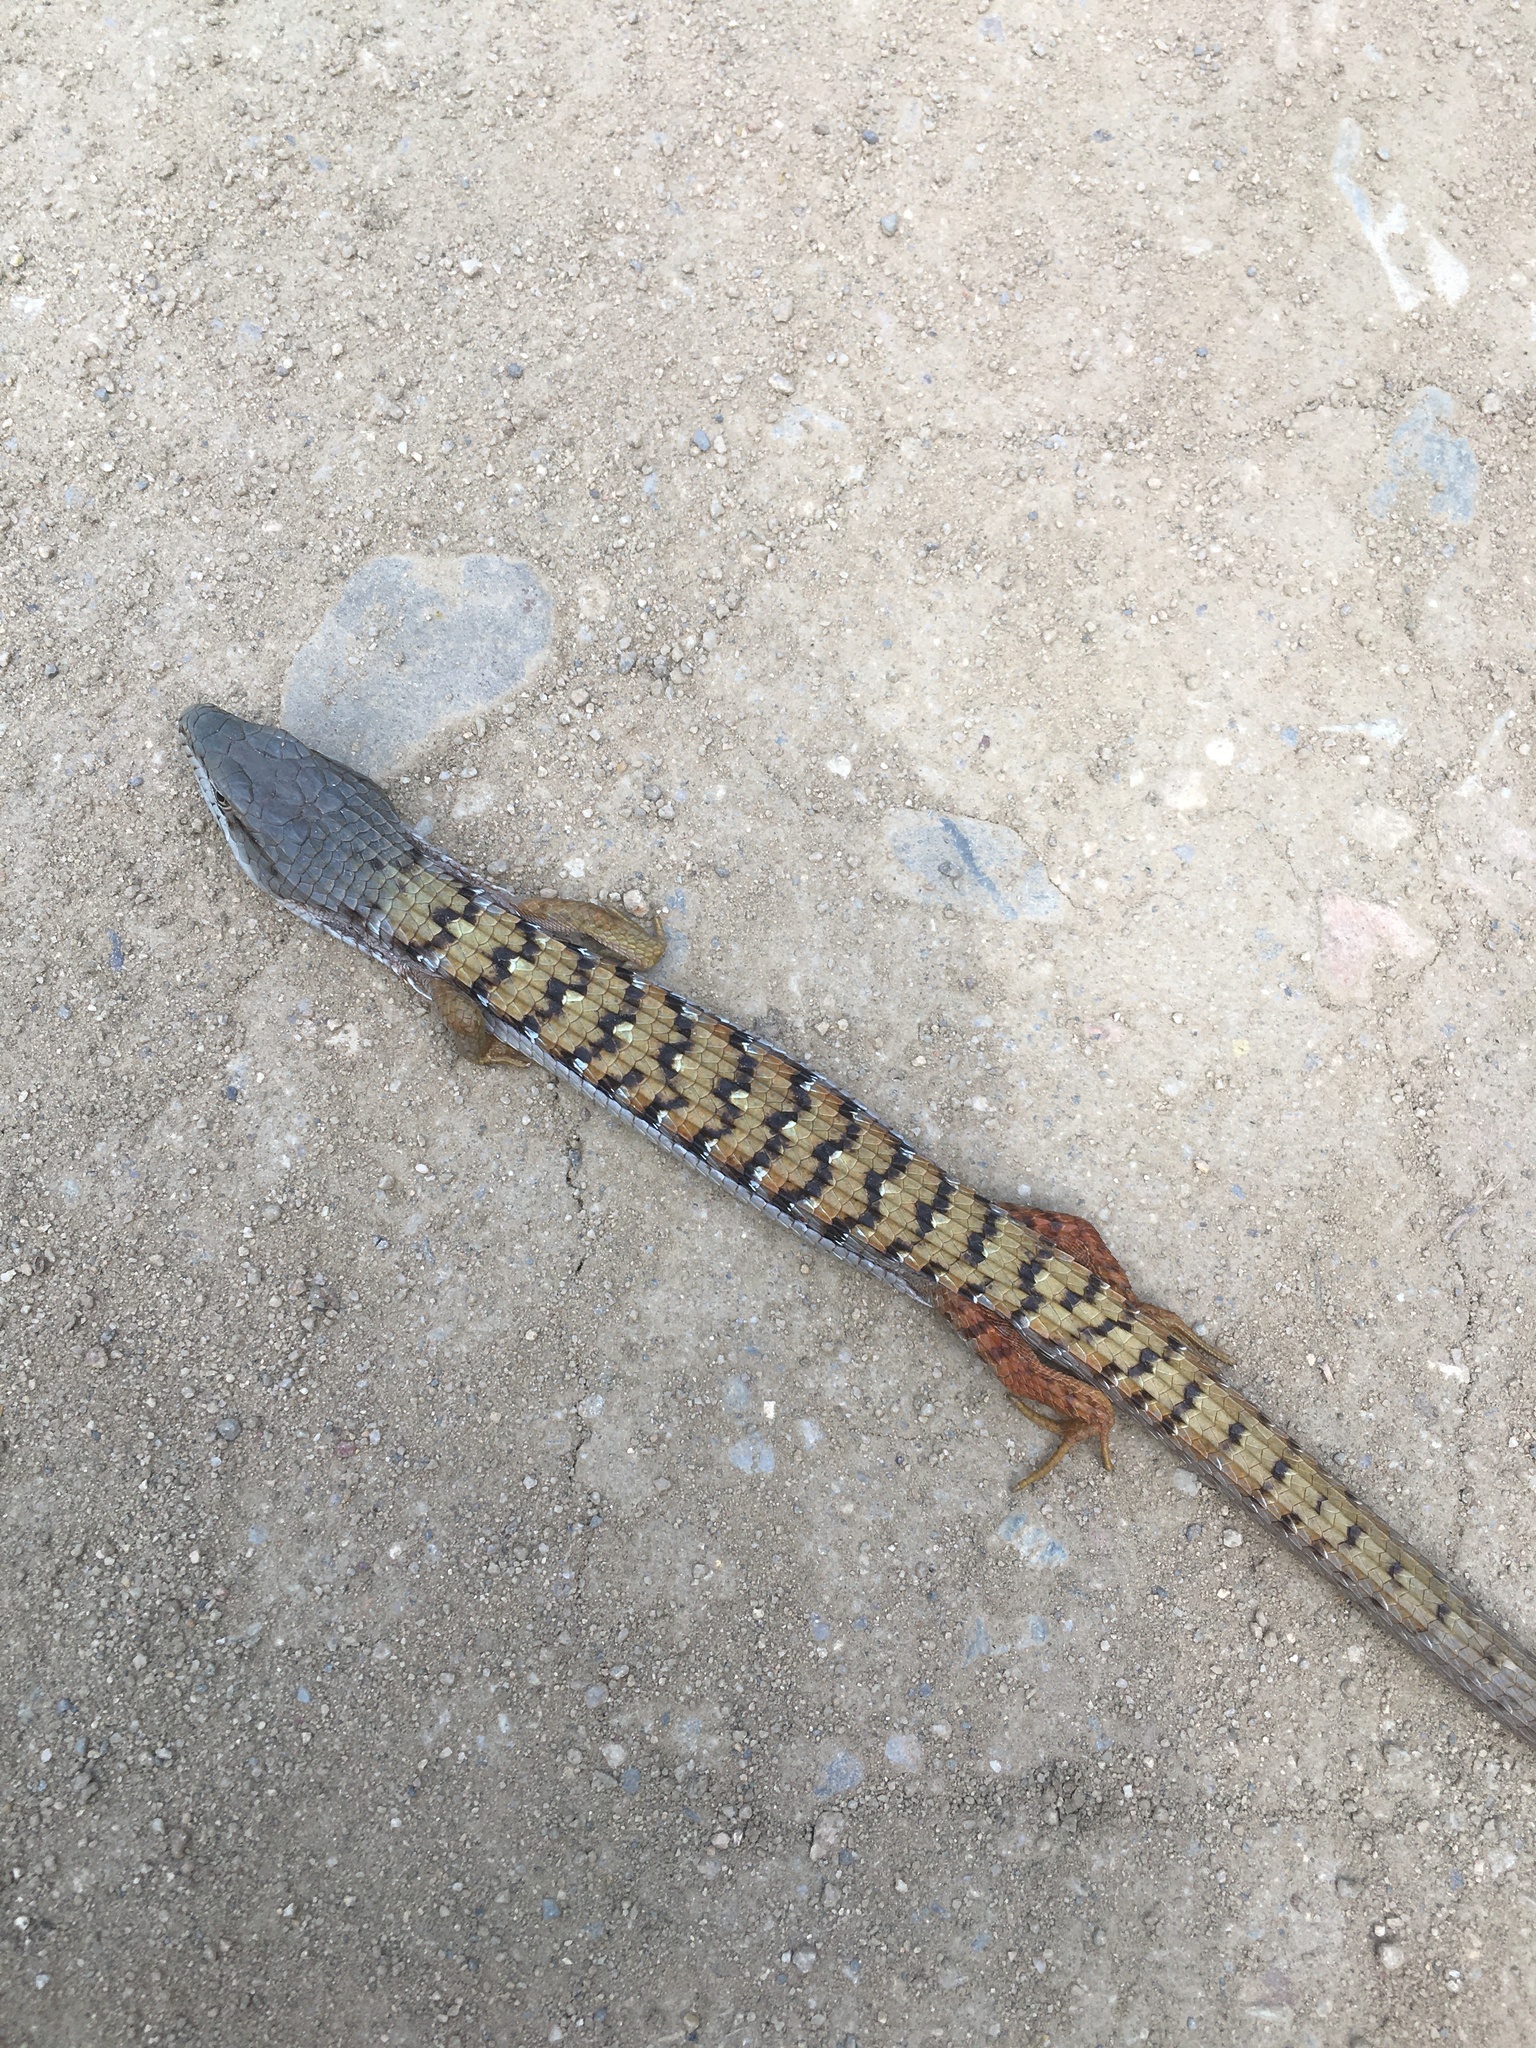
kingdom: Animalia
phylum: Chordata
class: Squamata
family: Anguidae
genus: Elgaria
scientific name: Elgaria multicarinata
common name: Southern alligator lizard
